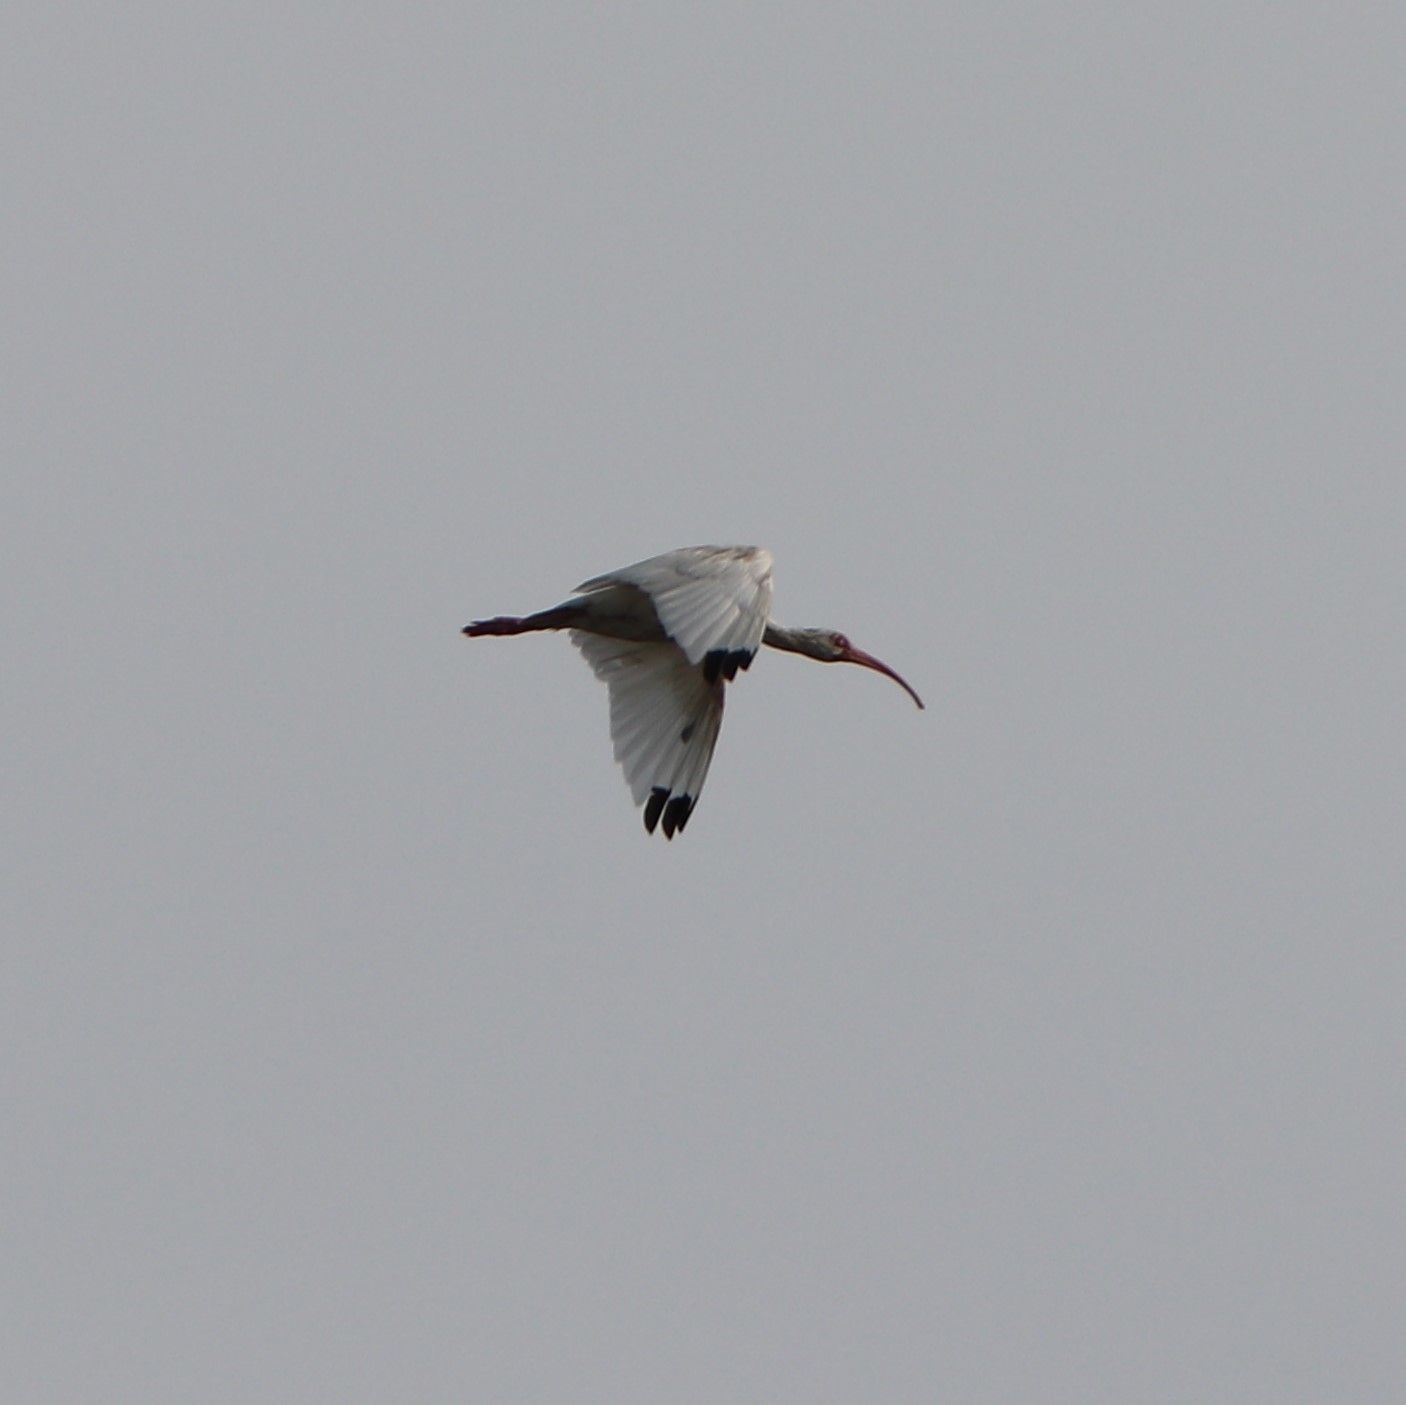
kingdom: Animalia
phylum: Chordata
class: Aves
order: Pelecaniformes
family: Threskiornithidae
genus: Eudocimus
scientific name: Eudocimus albus
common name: White ibis
